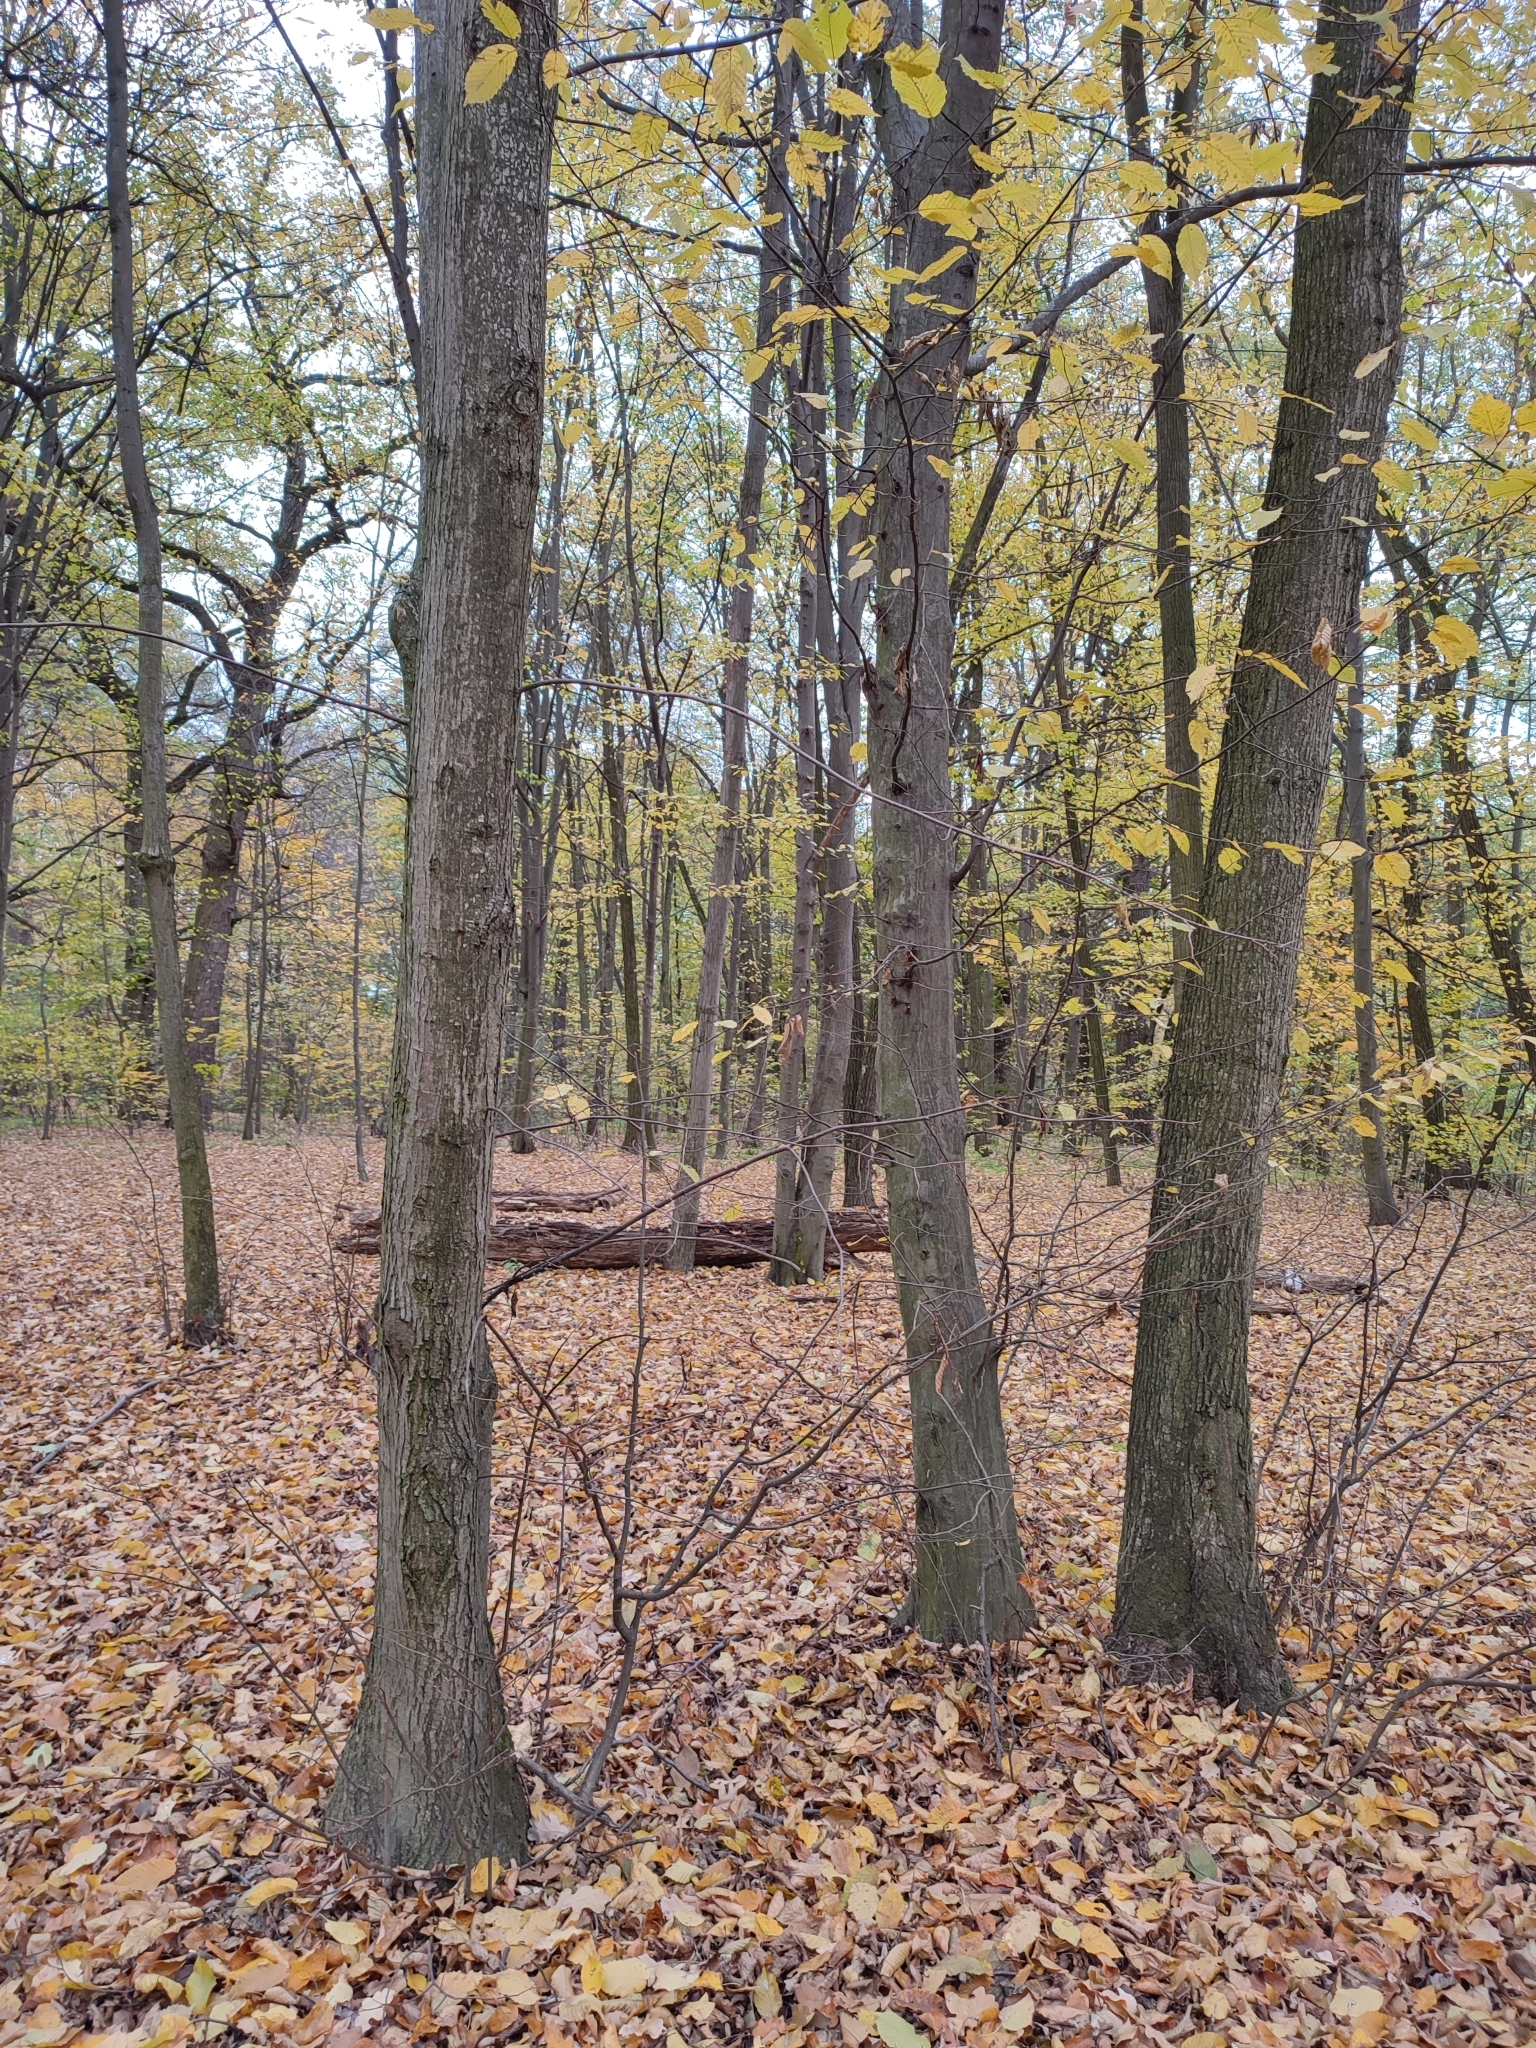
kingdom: Plantae
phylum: Tracheophyta
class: Magnoliopsida
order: Fagales
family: Betulaceae
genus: Carpinus
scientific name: Carpinus betulus
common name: Hornbeam
